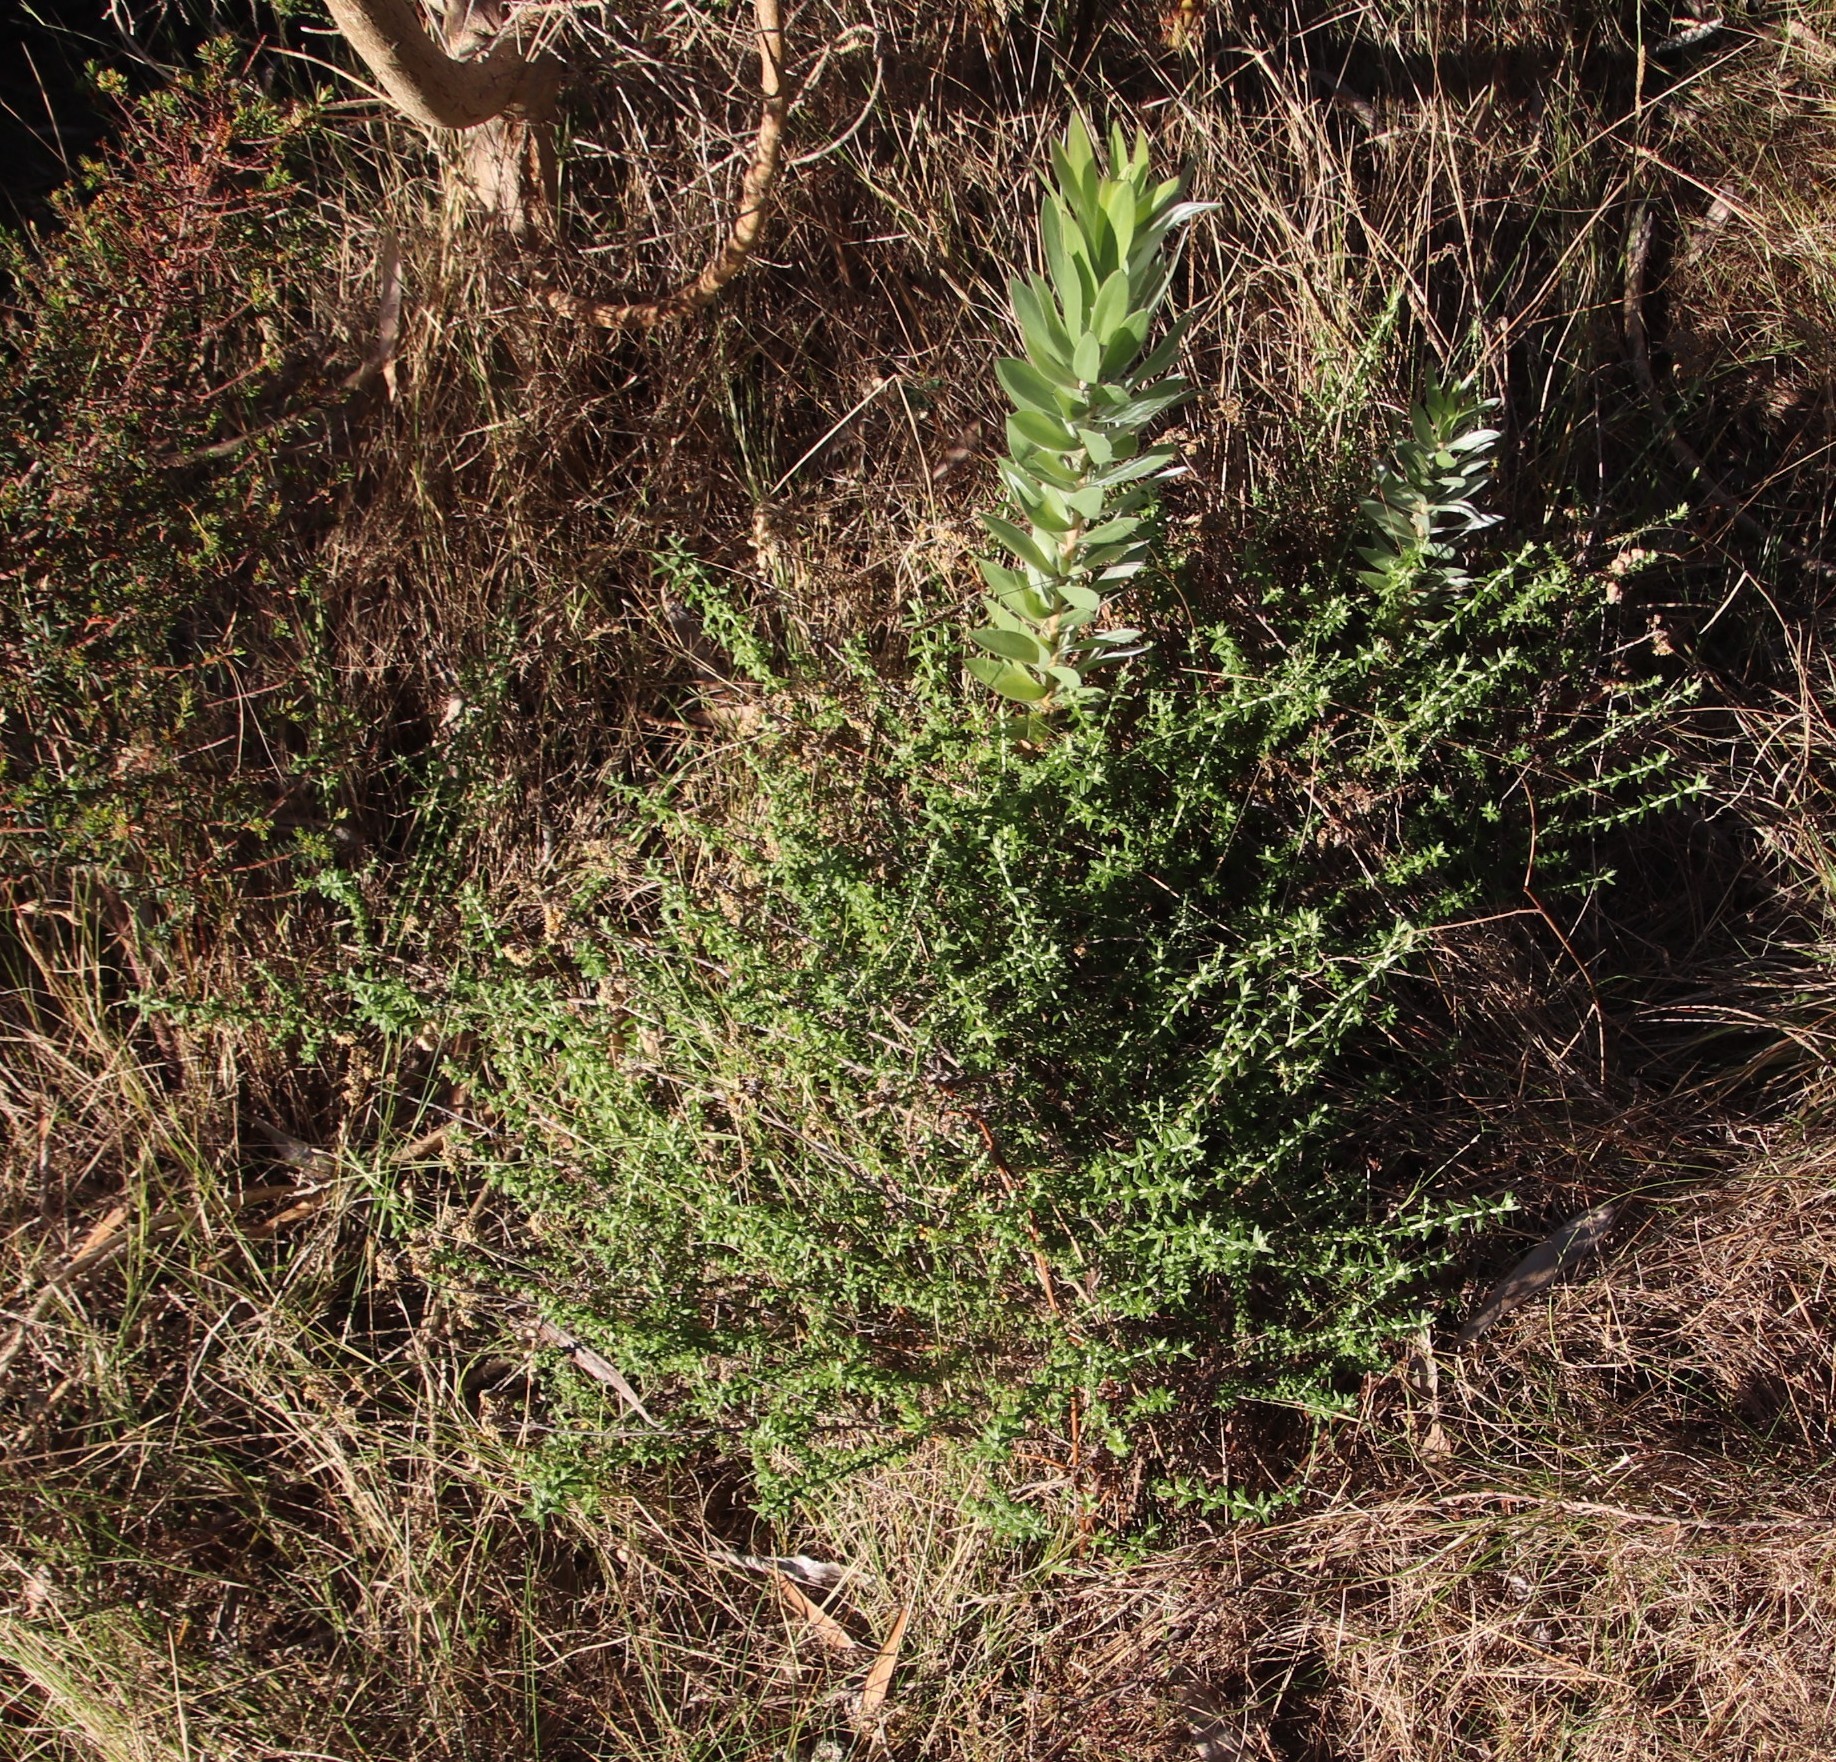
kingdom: Plantae
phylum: Tracheophyta
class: Magnoliopsida
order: Asterales
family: Asteraceae
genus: Helichrysum
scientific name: Helichrysum cymosum
